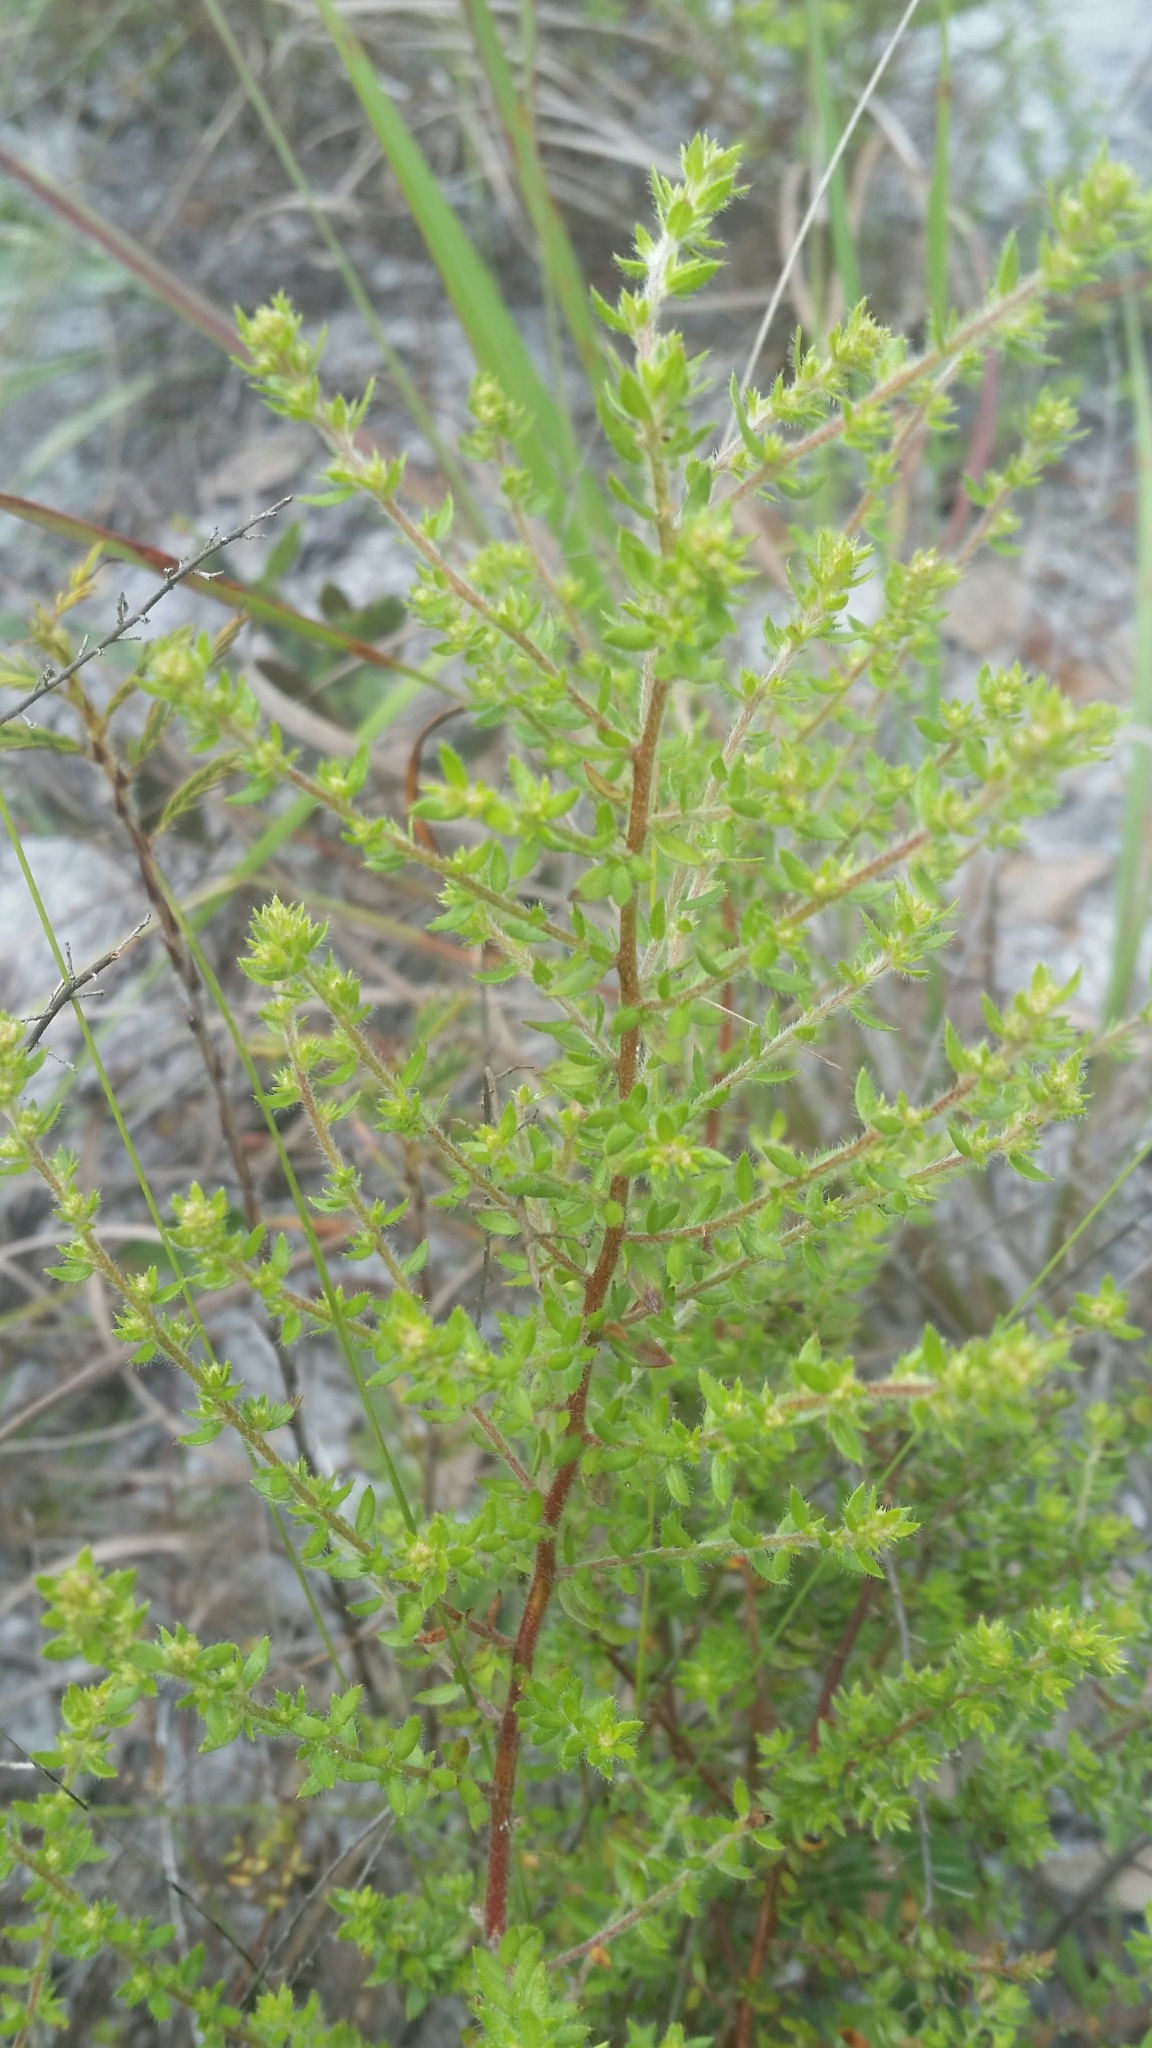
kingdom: Plantae
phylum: Tracheophyta
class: Magnoliopsida
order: Malvales
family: Cistaceae
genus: Lechea
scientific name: Lechea divaricata
